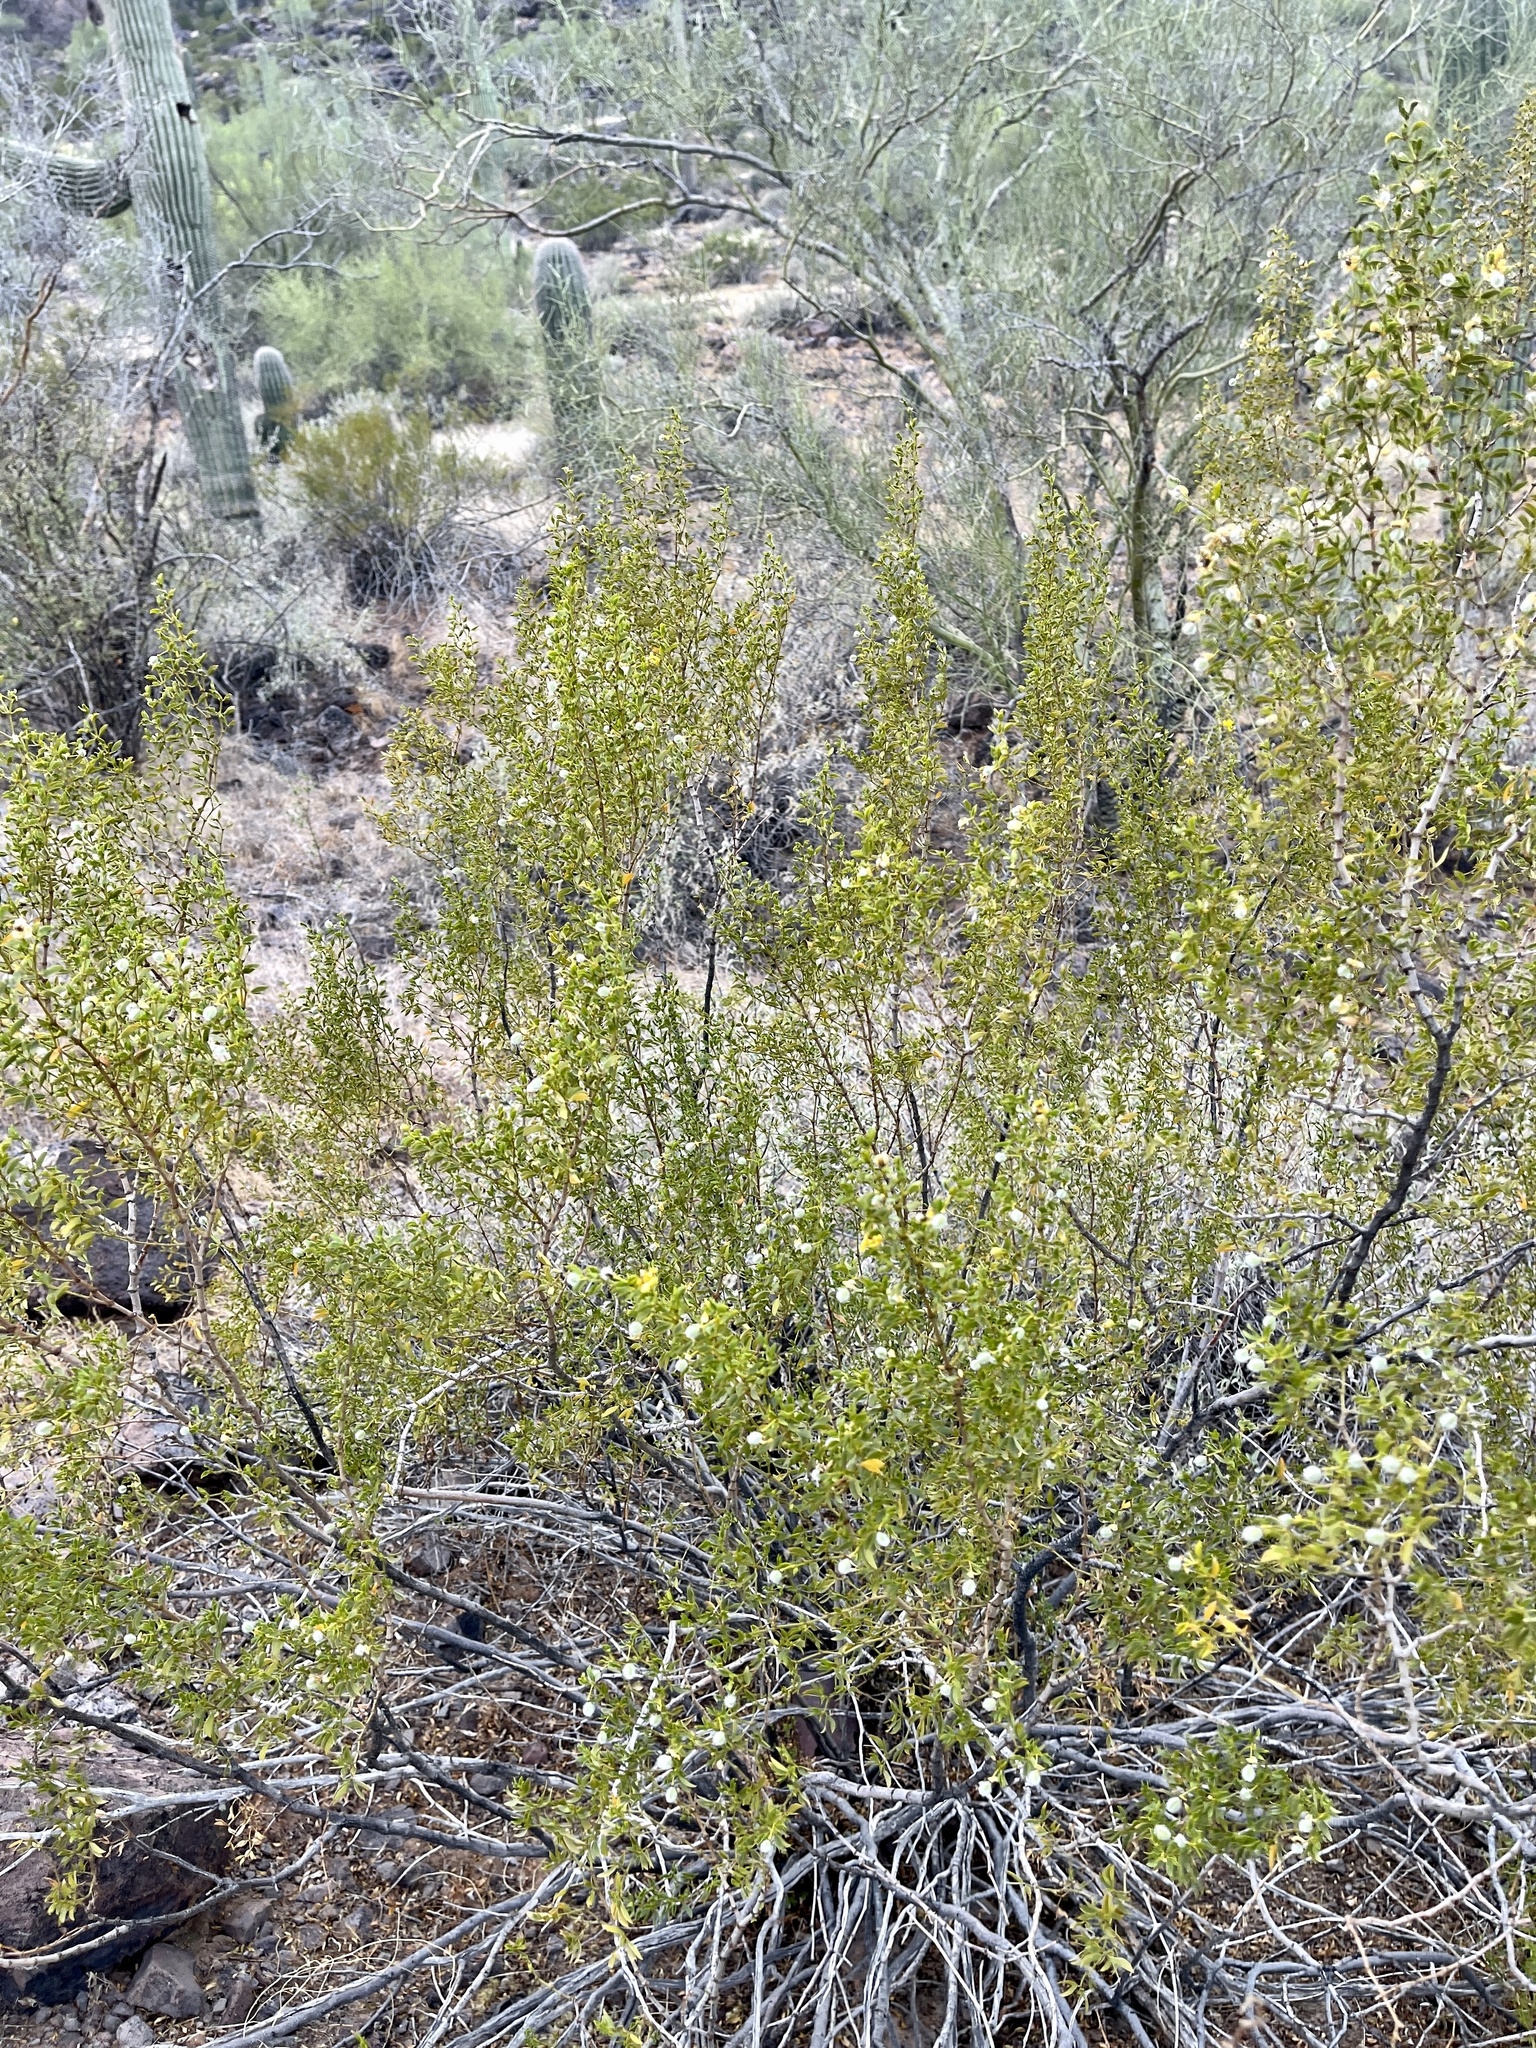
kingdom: Plantae
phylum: Tracheophyta
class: Magnoliopsida
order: Zygophyllales
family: Zygophyllaceae
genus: Larrea
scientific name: Larrea tridentata
